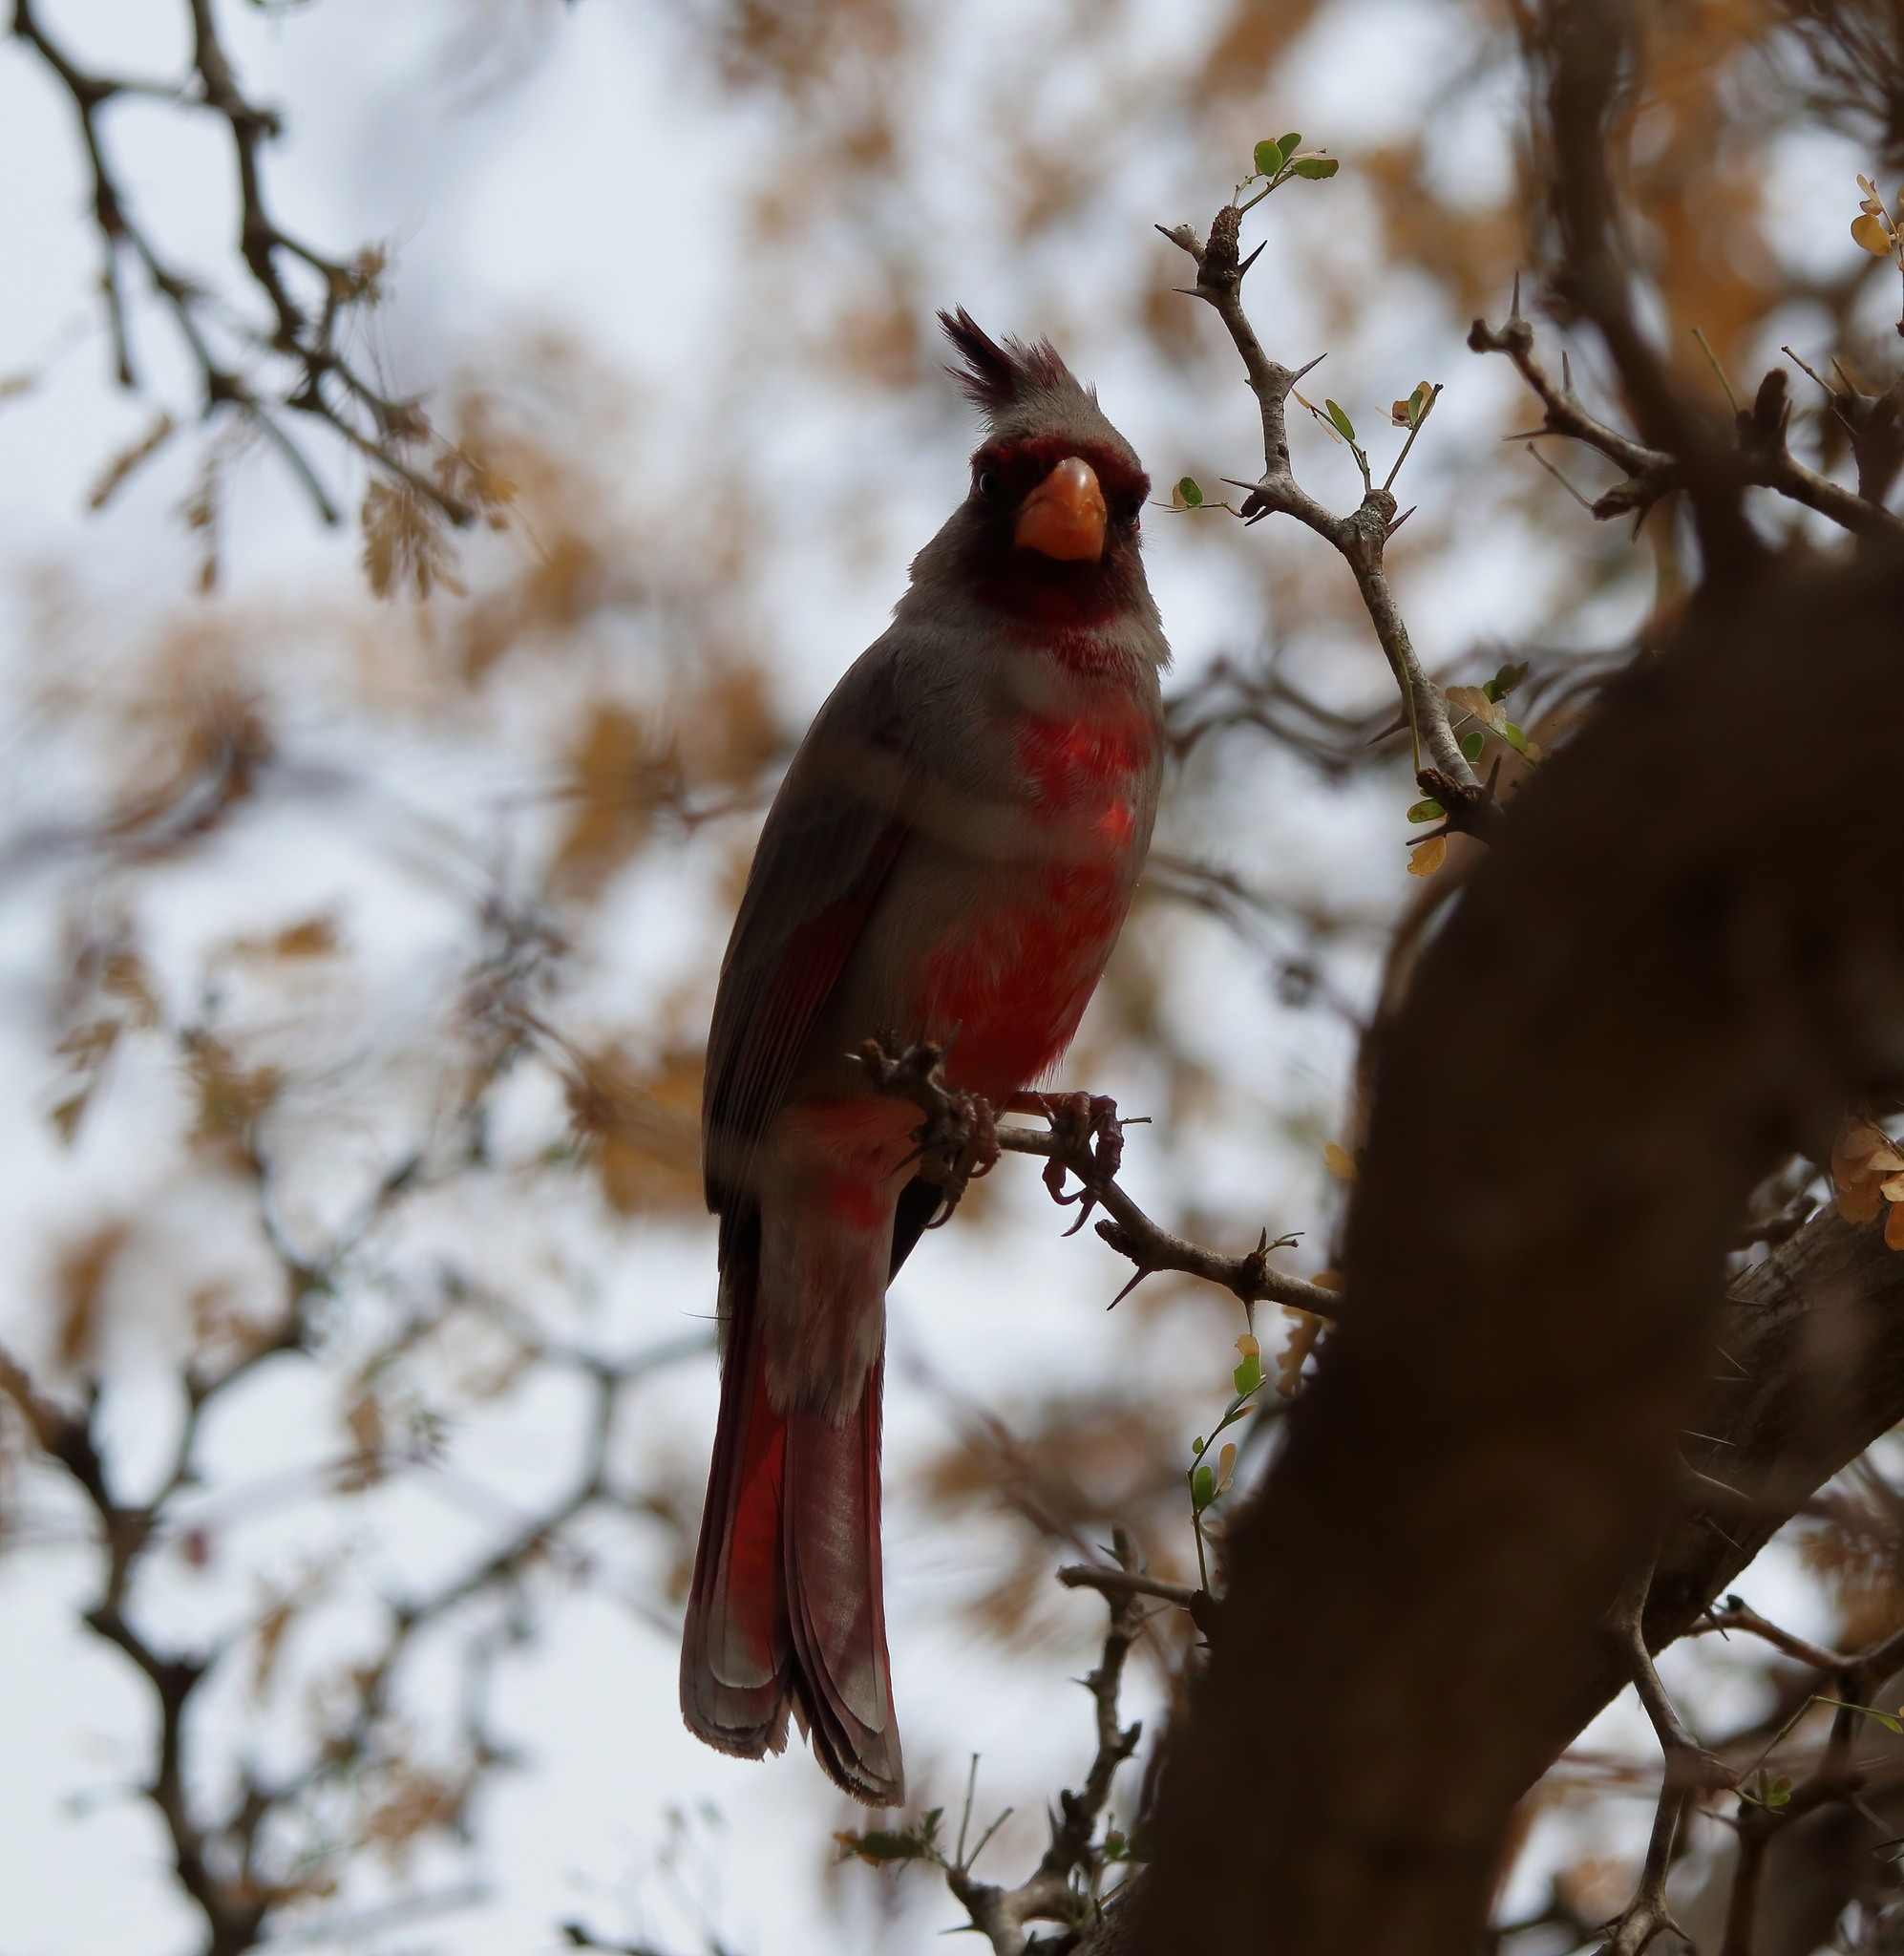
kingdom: Animalia
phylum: Chordata
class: Aves
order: Passeriformes
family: Cardinalidae
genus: Cardinalis
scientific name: Cardinalis sinuatus
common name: Pyrrhuloxia
